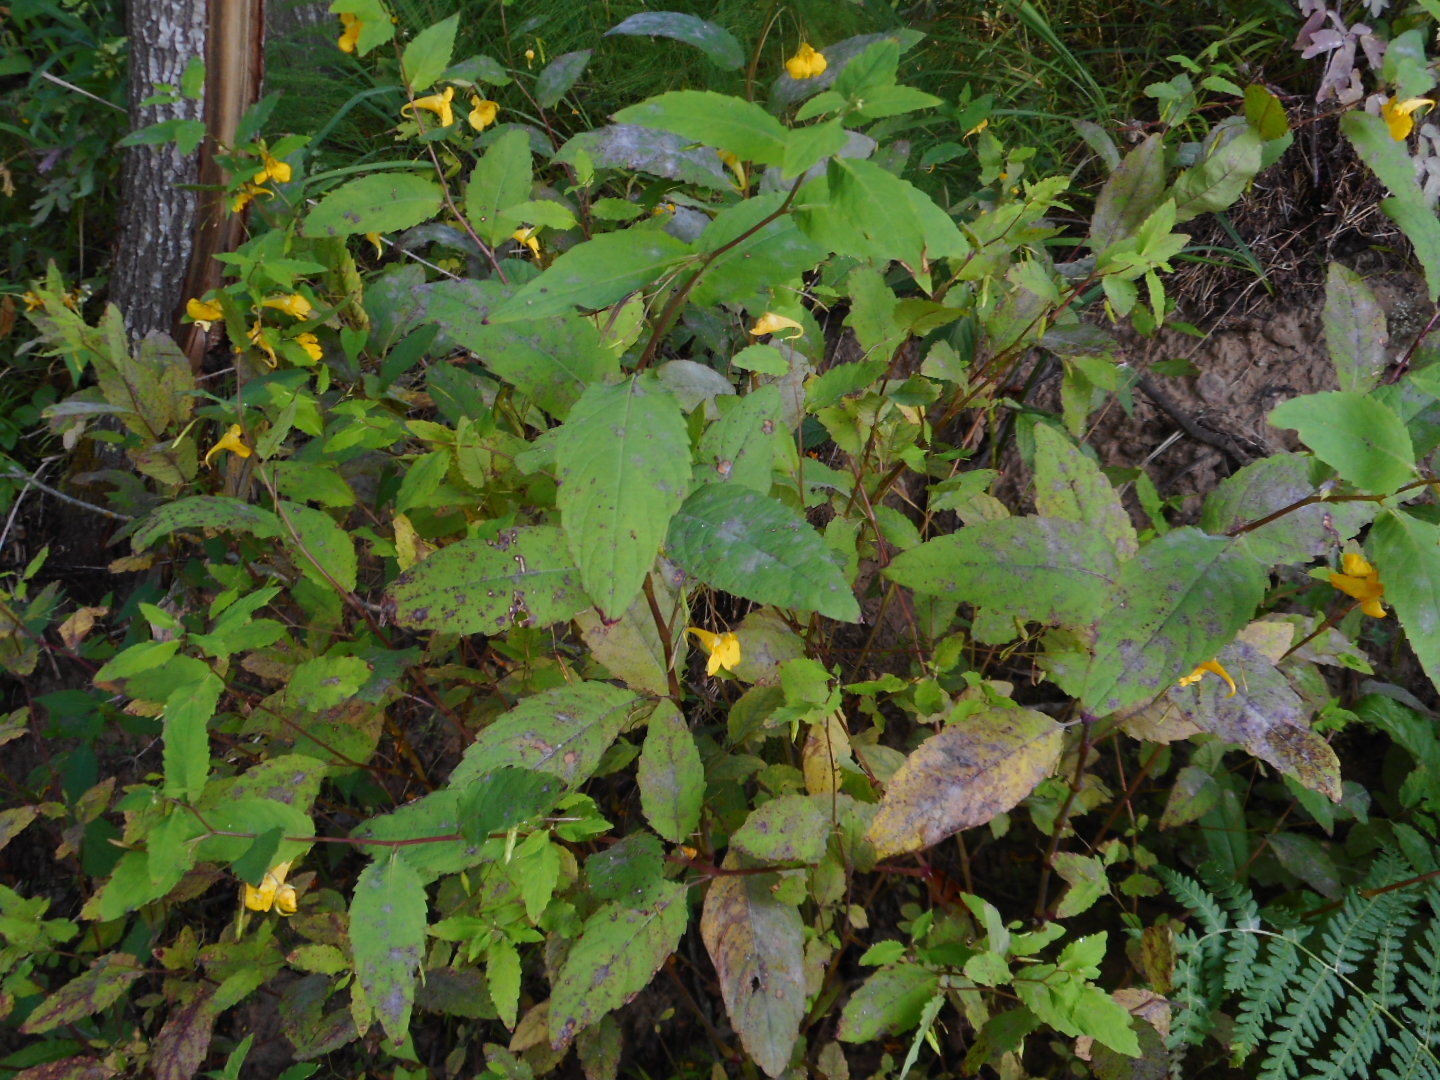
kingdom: Plantae
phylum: Tracheophyta
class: Magnoliopsida
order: Ericales
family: Balsaminaceae
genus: Impatiens
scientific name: Impatiens noli-tangere
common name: Touch-me-not balsam
